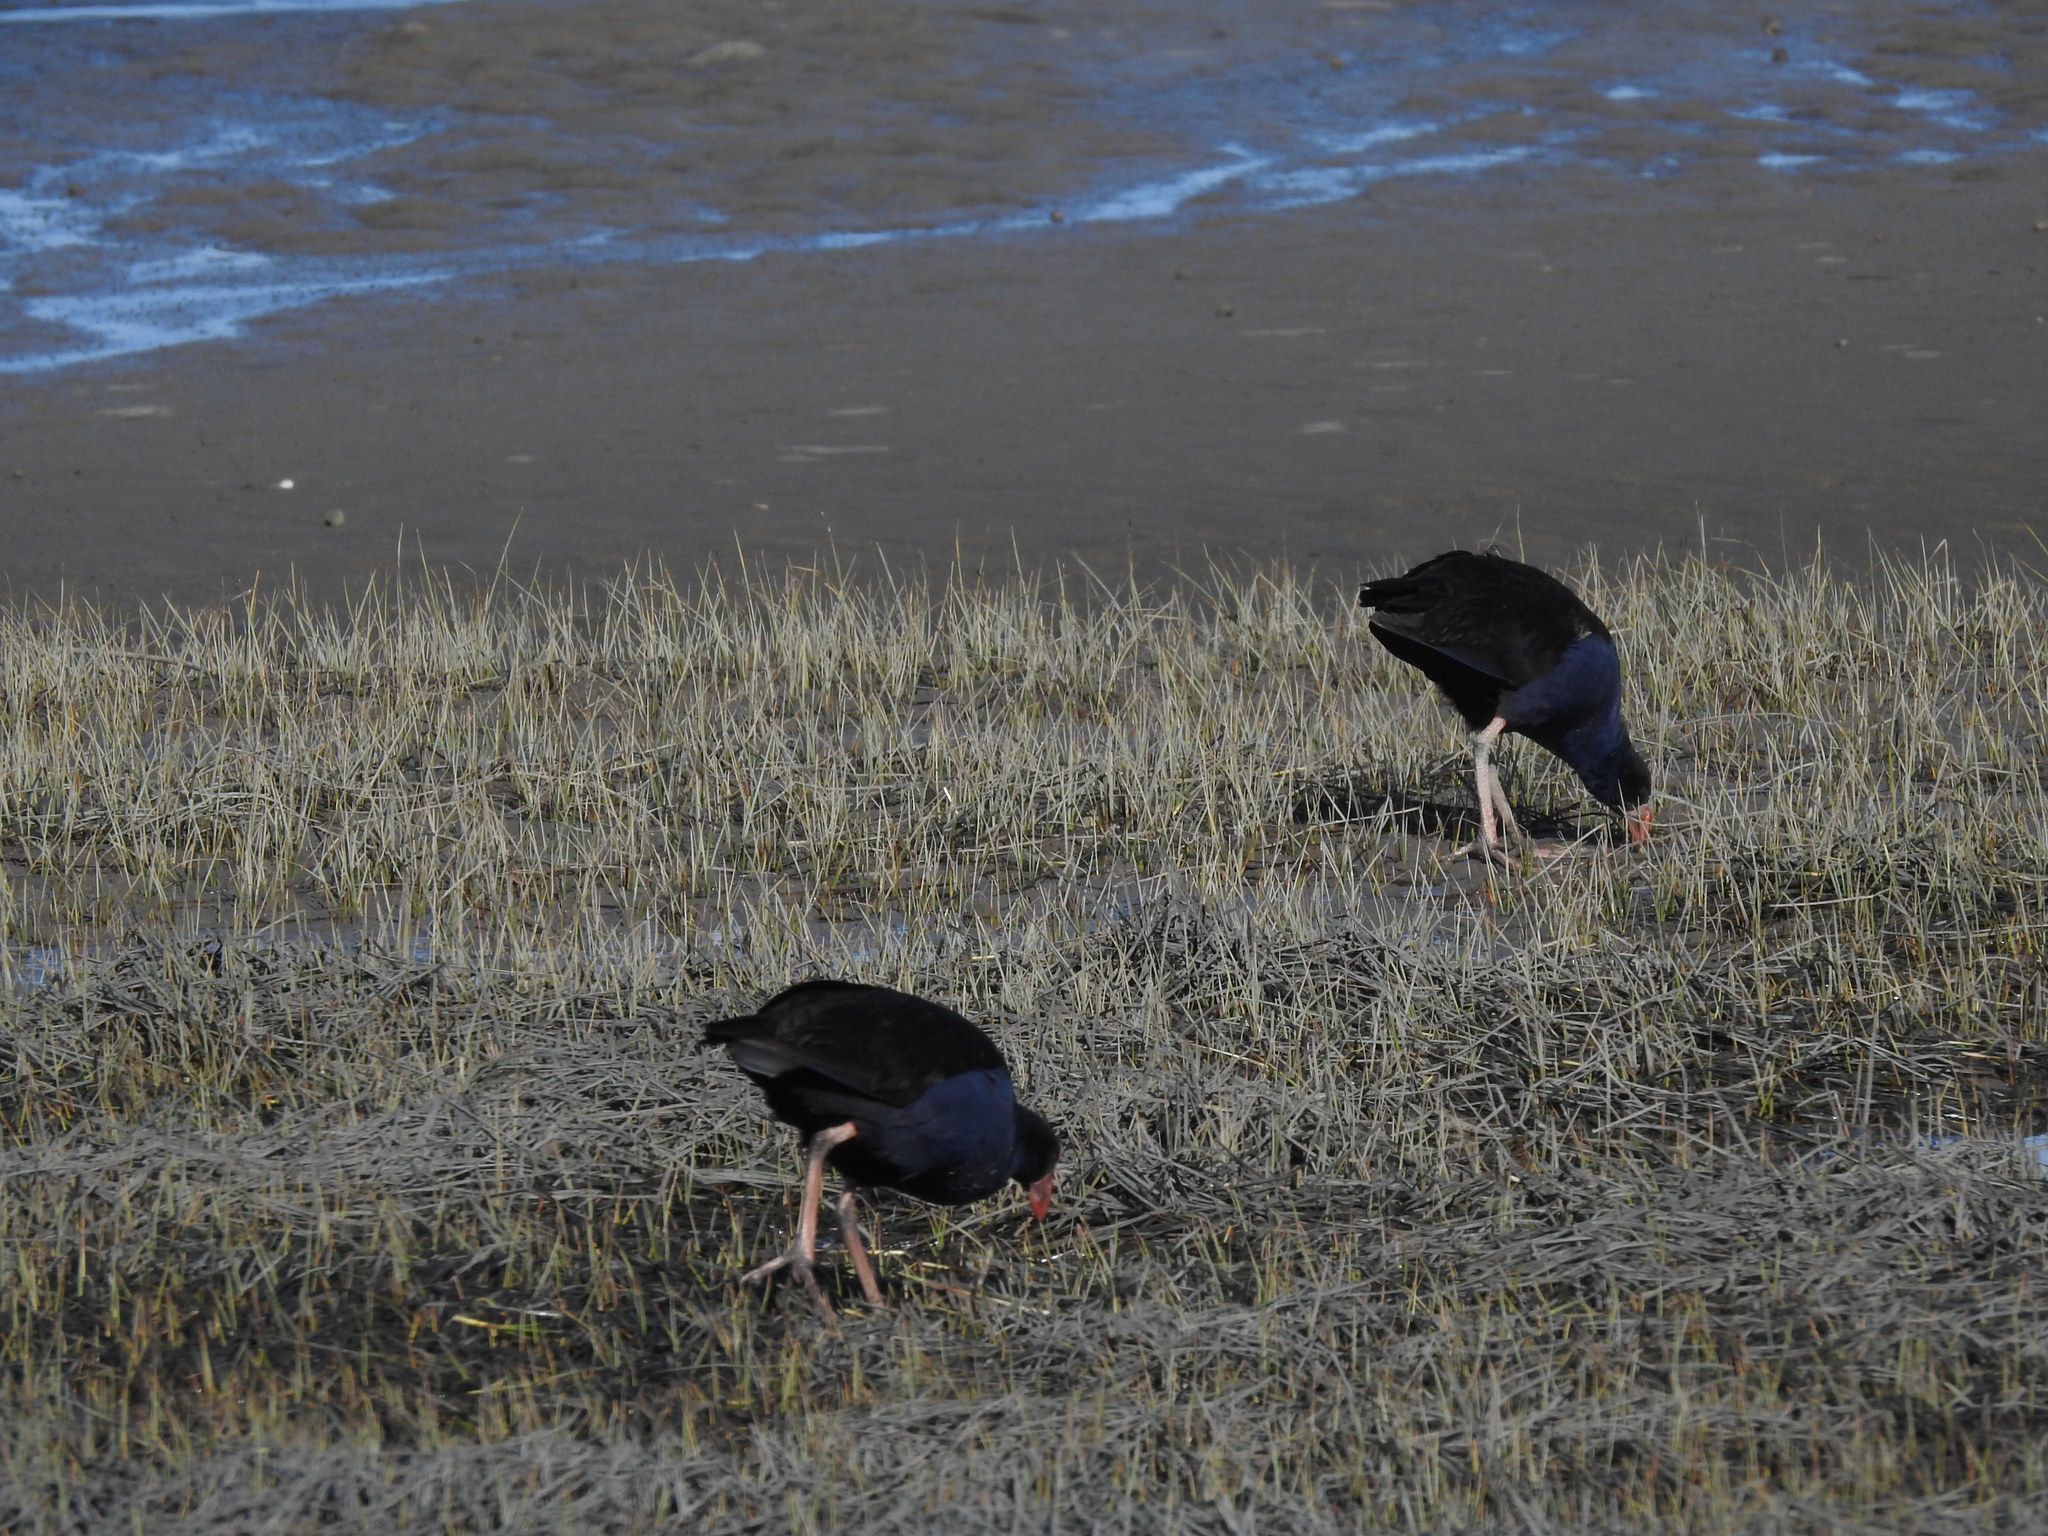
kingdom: Animalia
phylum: Chordata
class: Aves
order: Gruiformes
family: Rallidae
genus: Porphyrio
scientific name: Porphyrio melanotus
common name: Australasian swamphen
